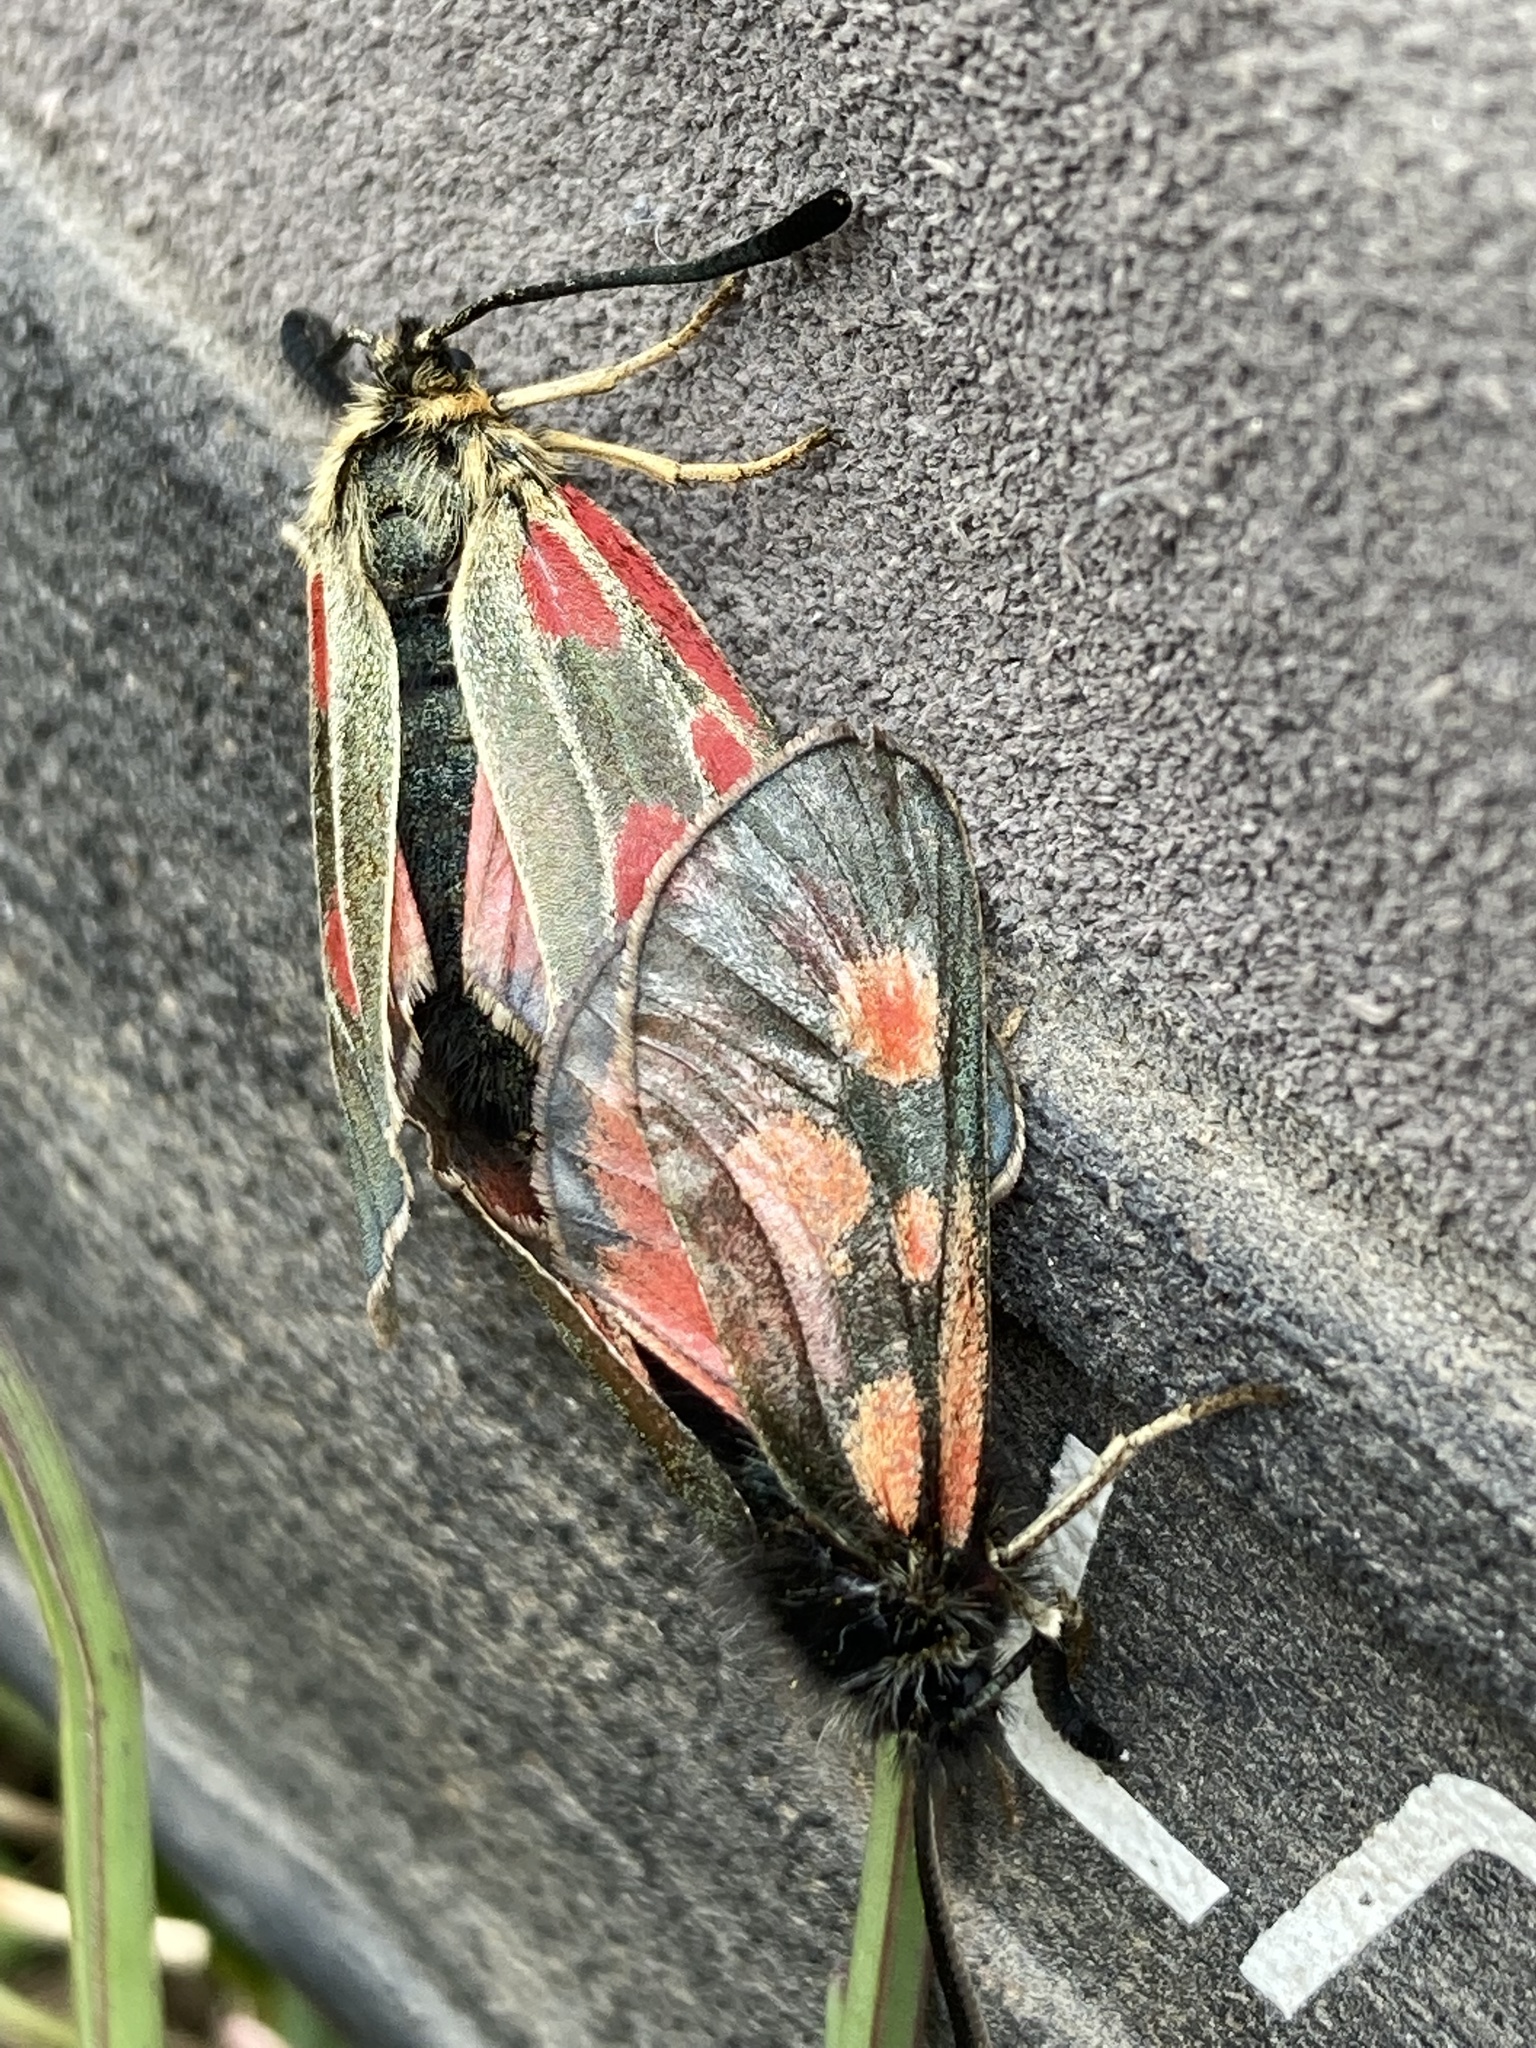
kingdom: Animalia
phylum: Arthropoda
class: Insecta
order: Lepidoptera
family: Zygaenidae
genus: Zygaena
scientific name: Zygaena exulans
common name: Scotch burnet
